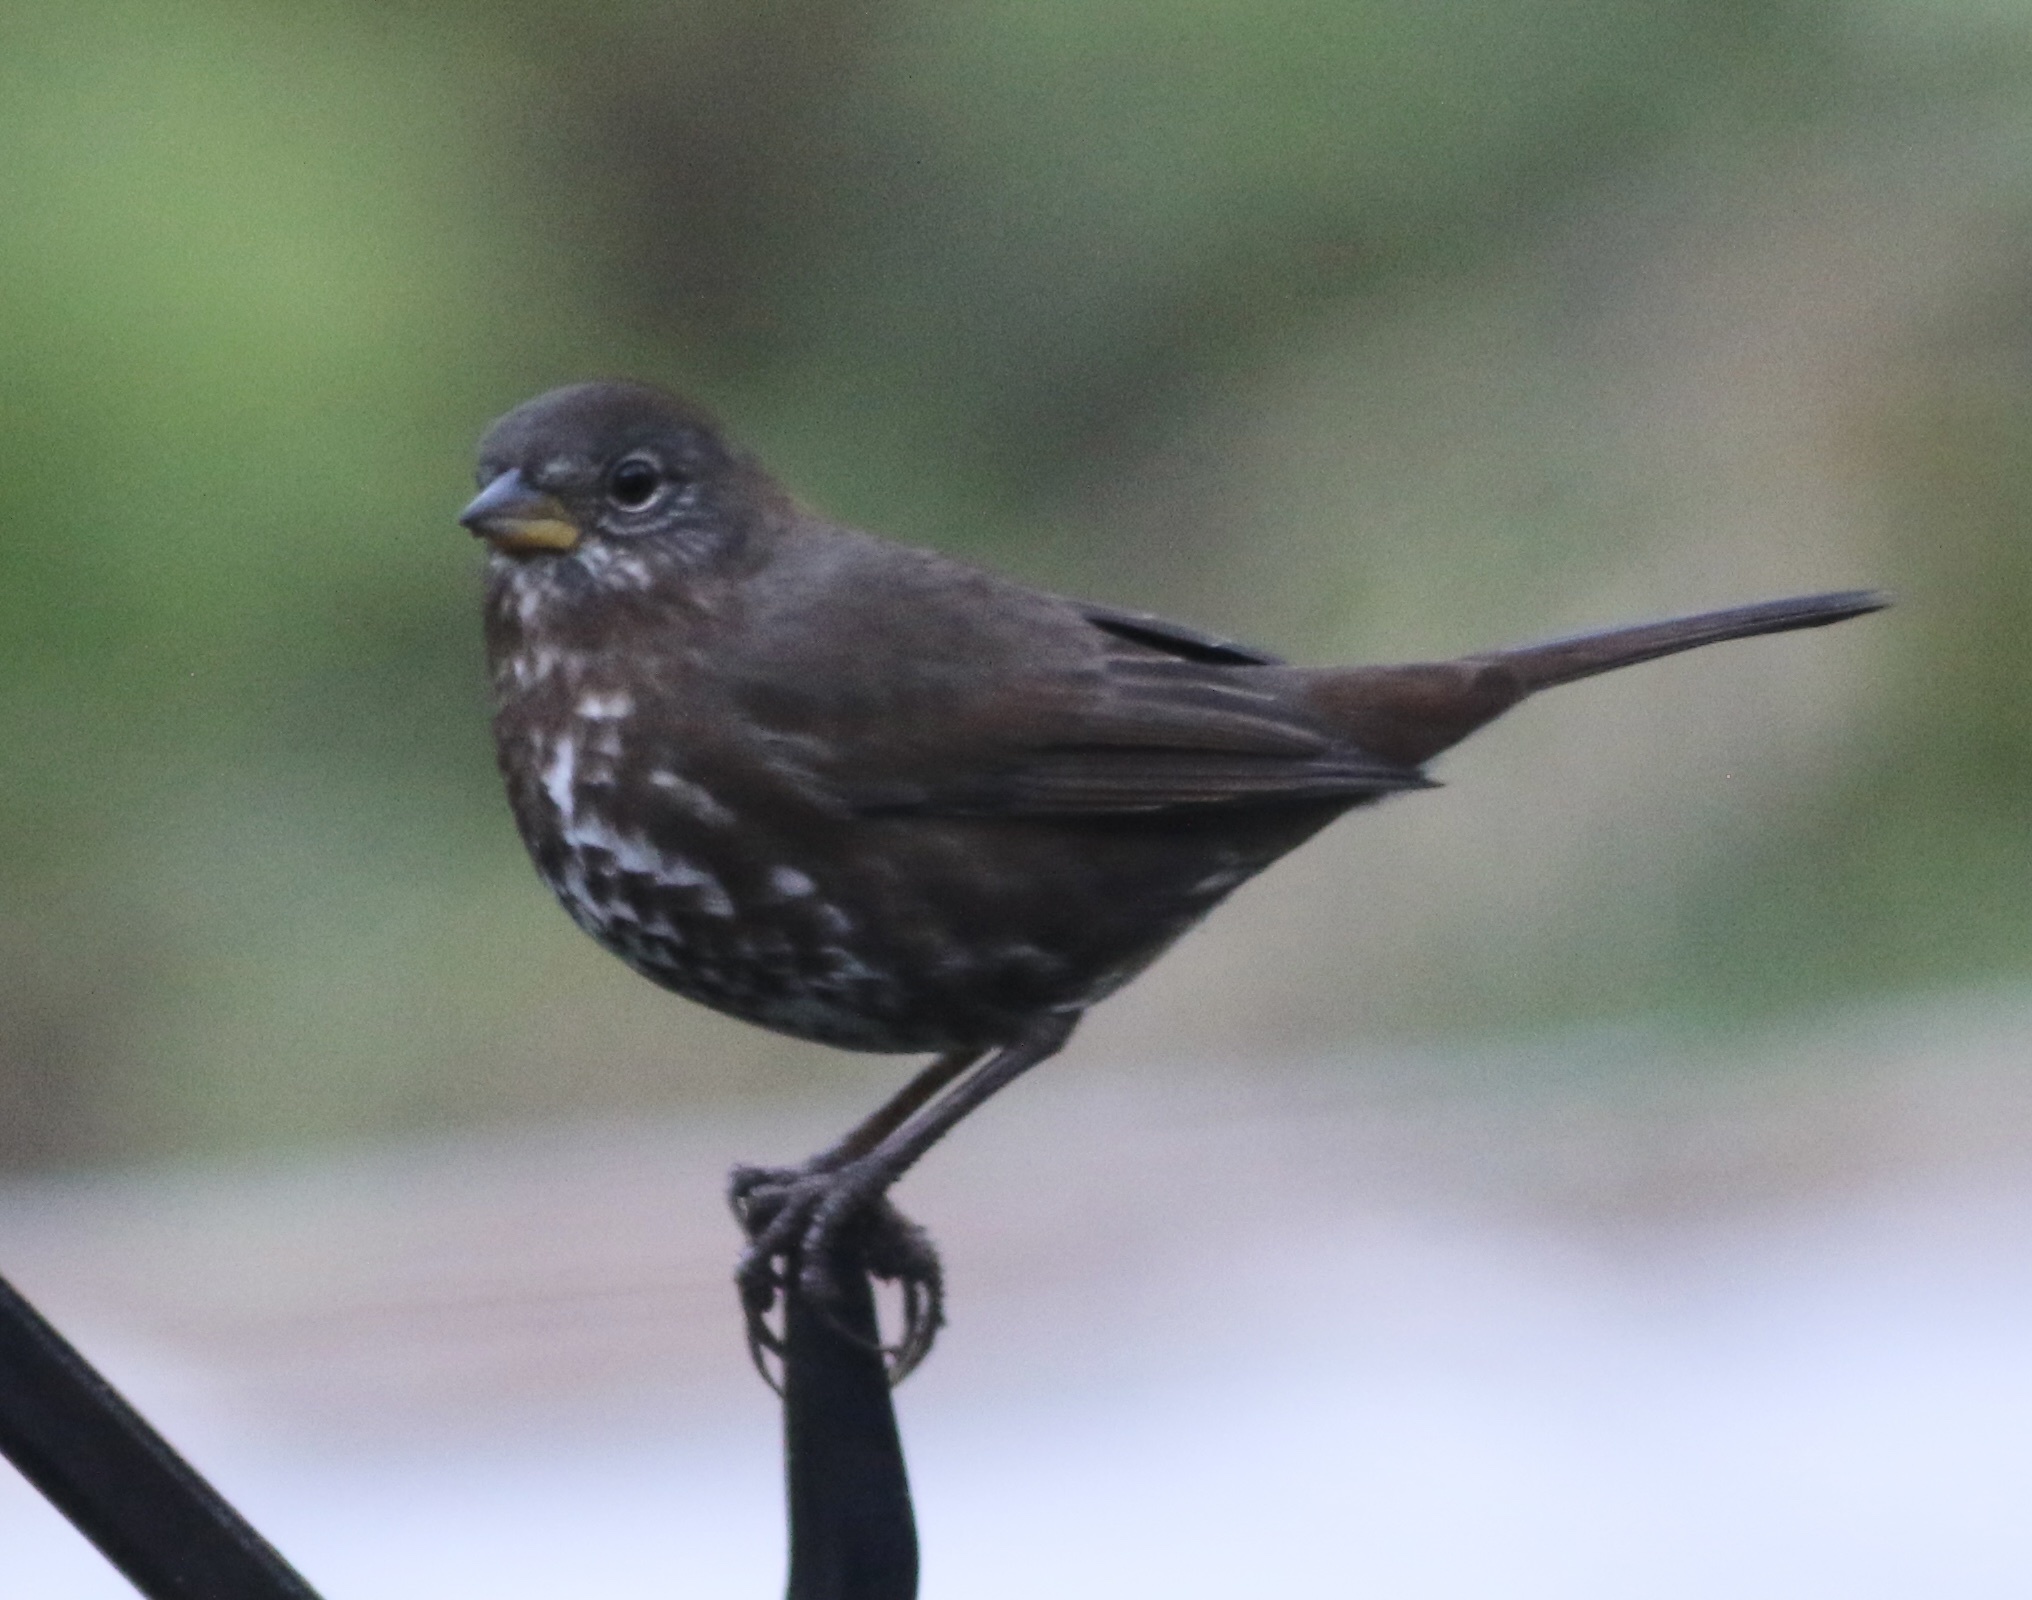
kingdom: Animalia
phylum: Chordata
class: Aves
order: Passeriformes
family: Passerellidae
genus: Passerella
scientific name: Passerella iliaca
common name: Fox sparrow
